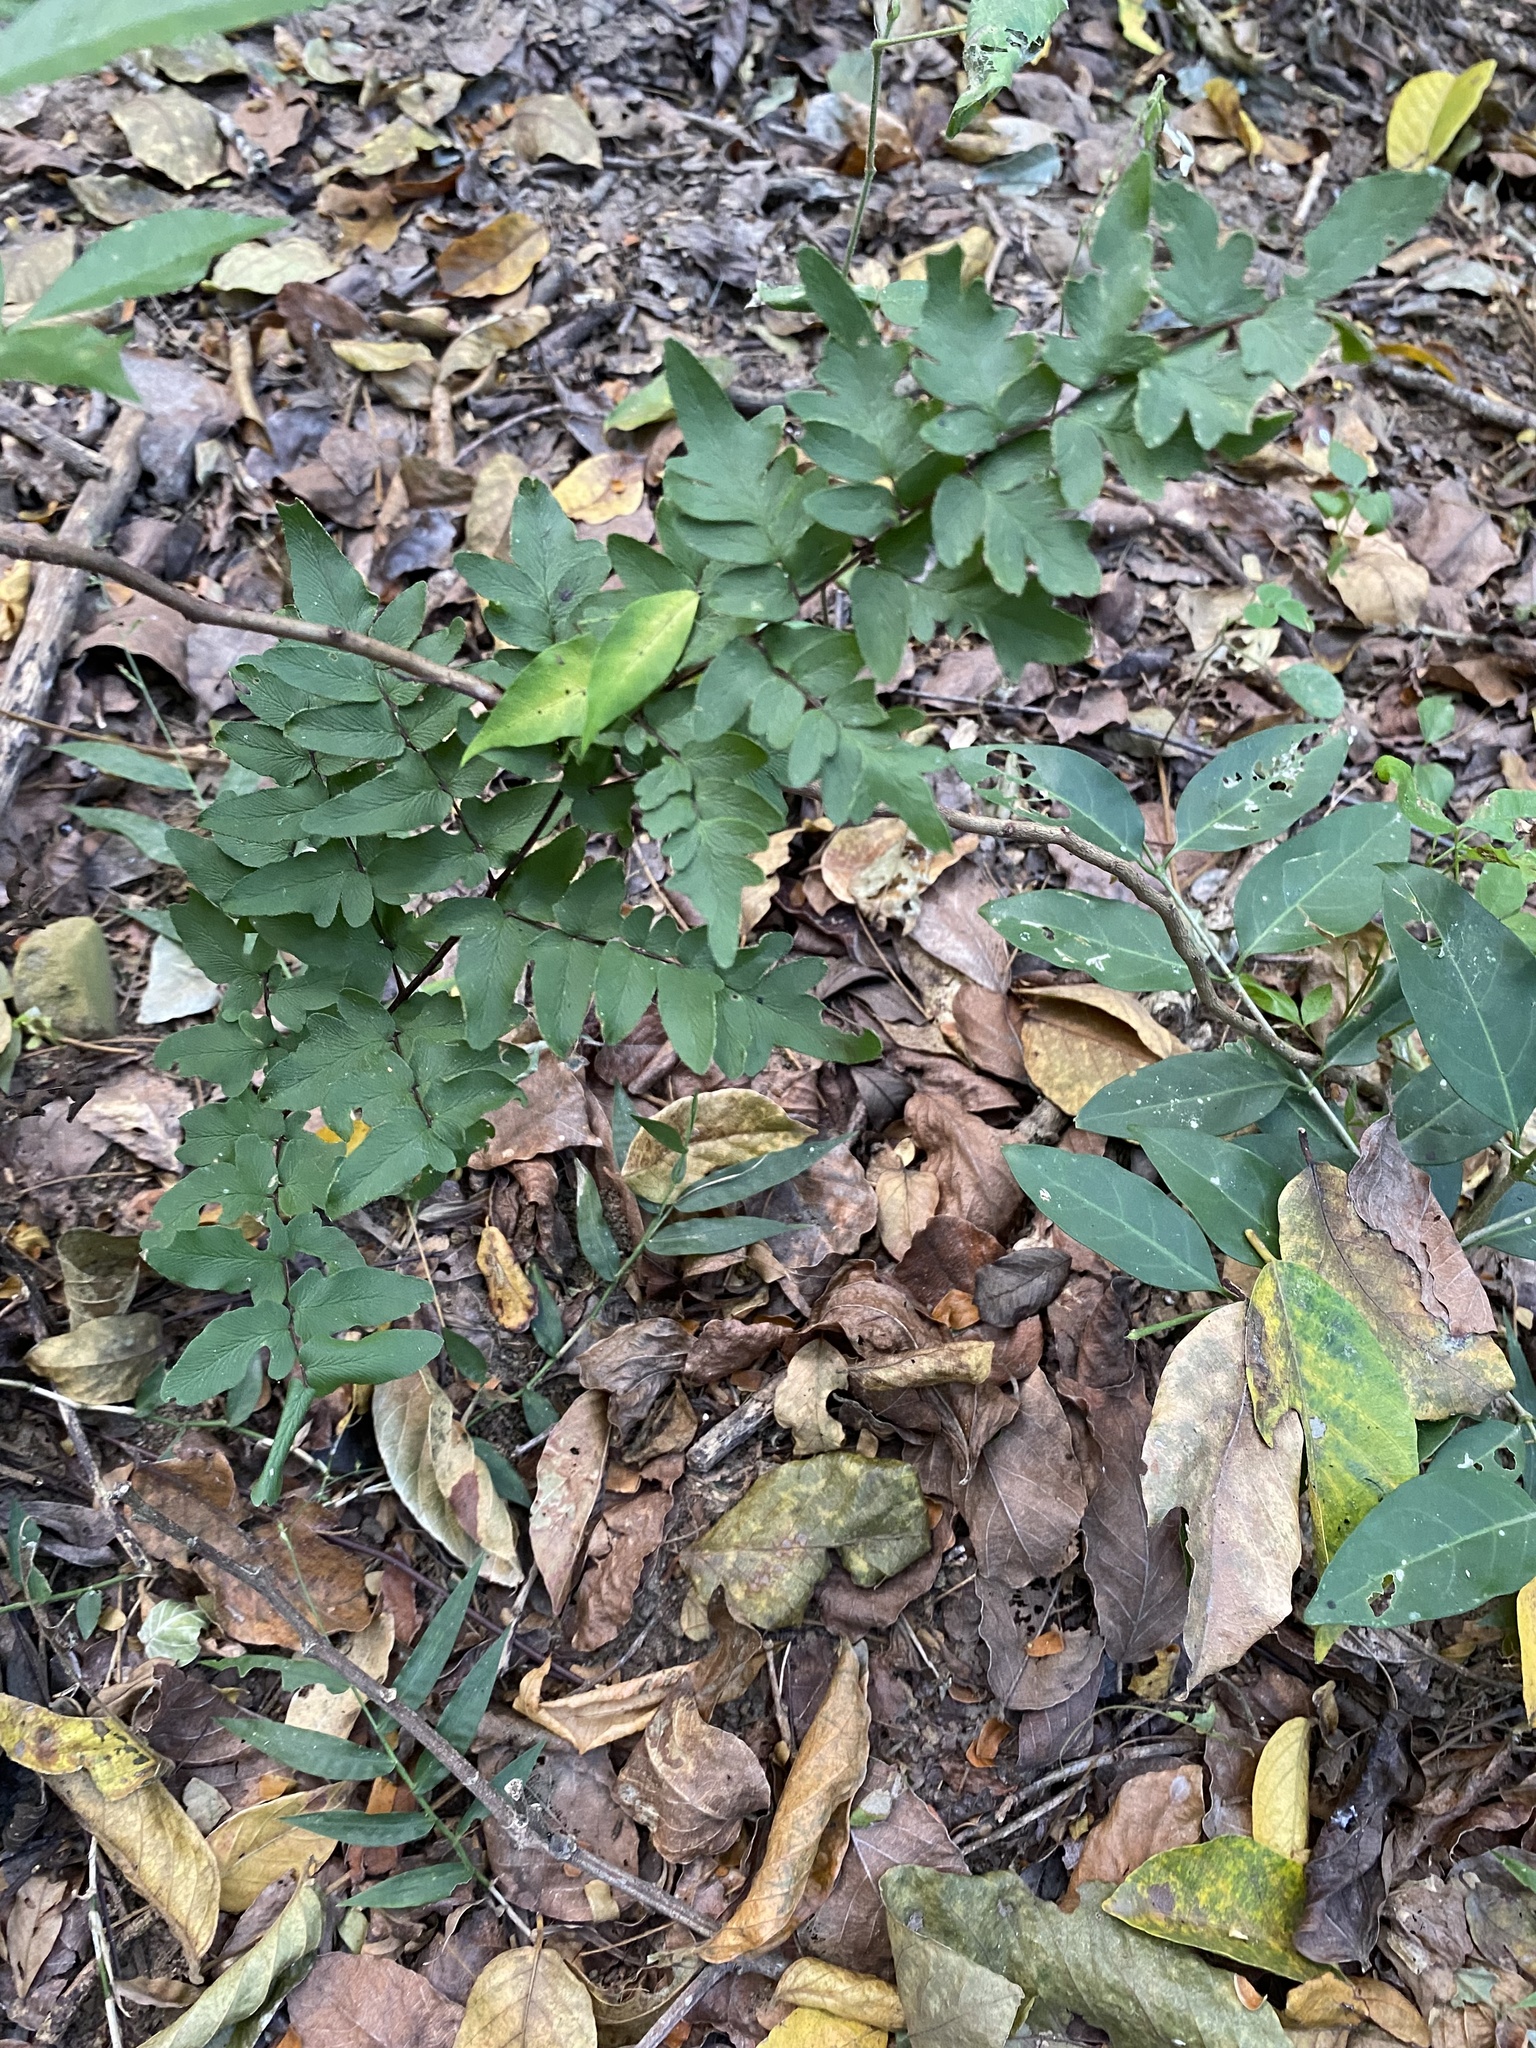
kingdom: Plantae
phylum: Tracheophyta
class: Polypodiopsida
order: Polypodiales
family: Pteridaceae
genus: Cheilanthes
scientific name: Cheilanthes viridis
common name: Green cliffbrake
